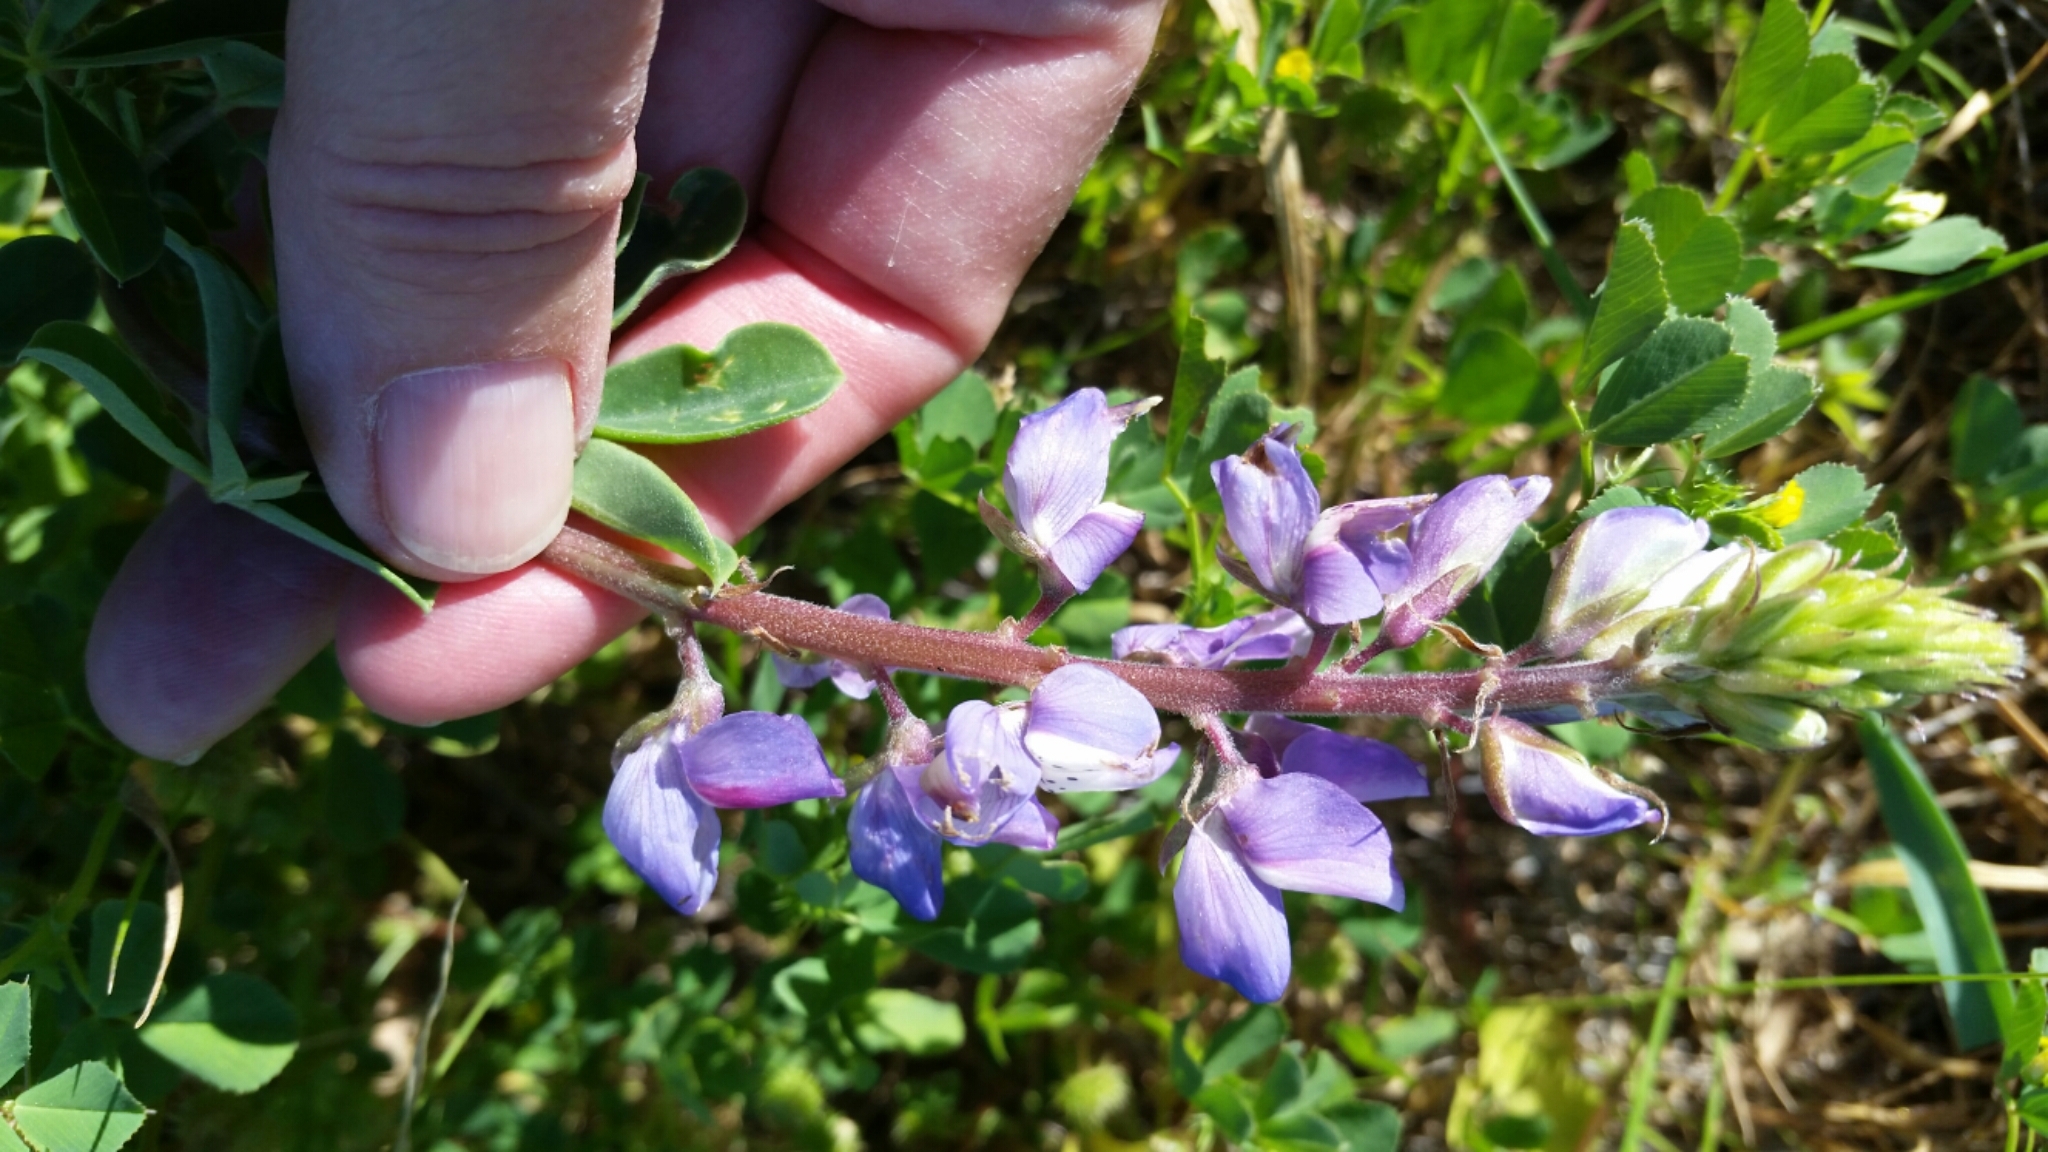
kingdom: Plantae
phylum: Tracheophyta
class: Magnoliopsida
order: Fabales
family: Fabaceae
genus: Lupinus
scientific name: Lupinus succulentus
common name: Arroyo lupine
